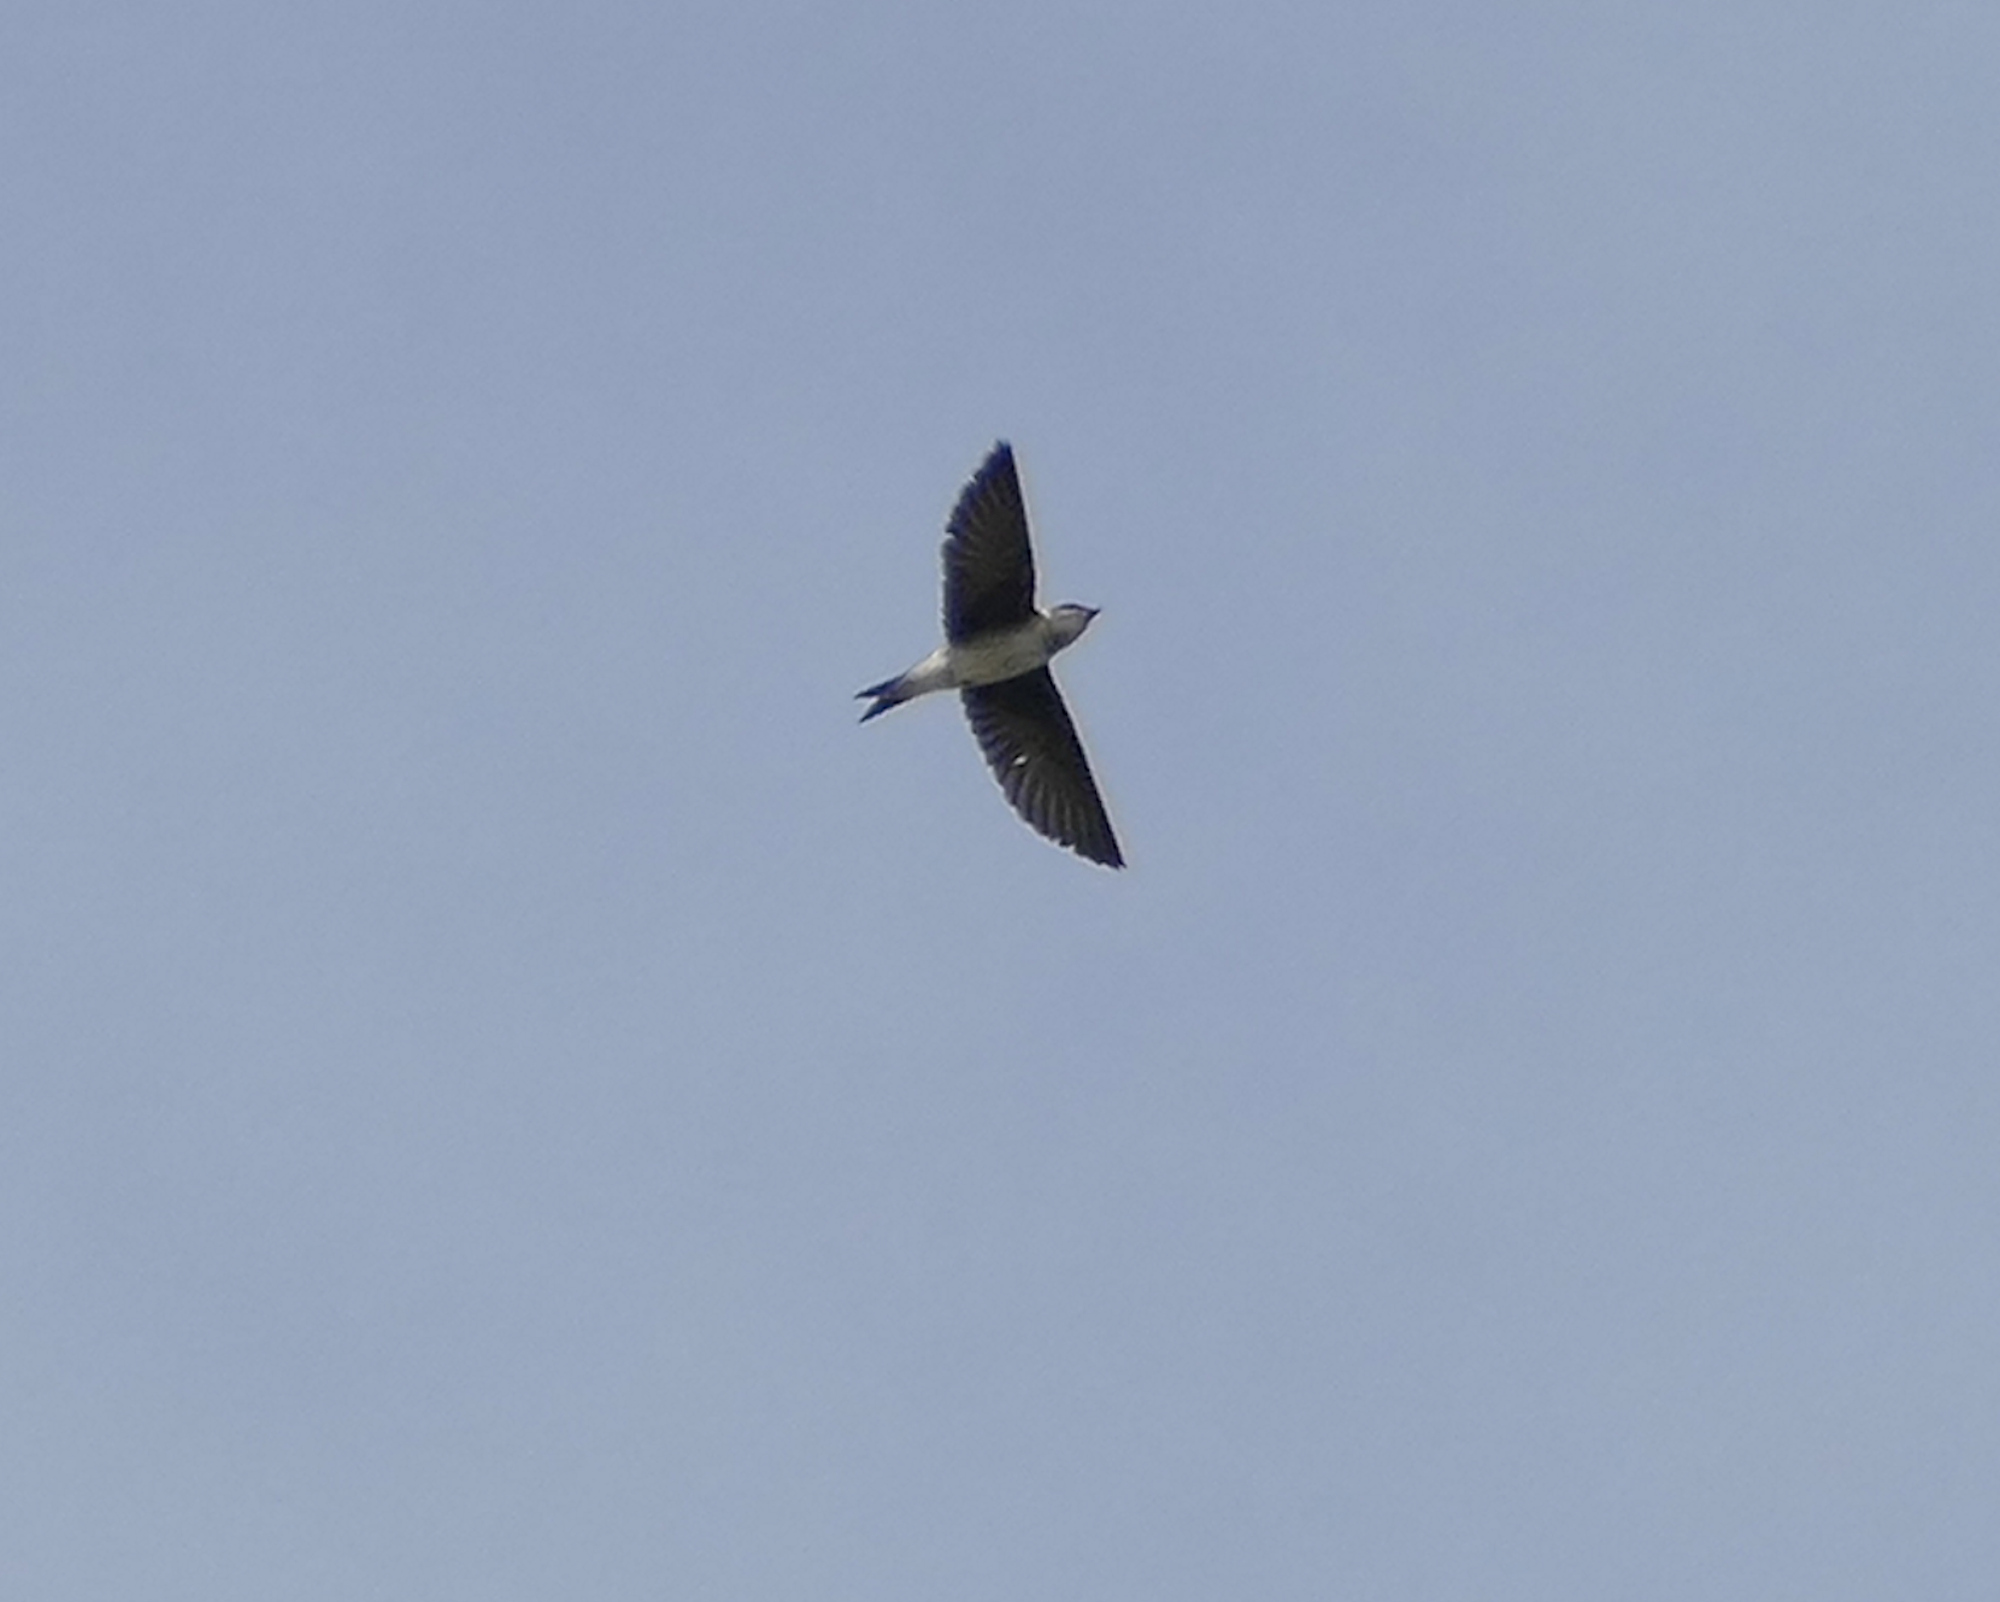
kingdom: Animalia
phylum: Chordata
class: Aves
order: Passeriformes
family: Hirundinidae
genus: Progne
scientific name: Progne subis
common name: Purple martin
